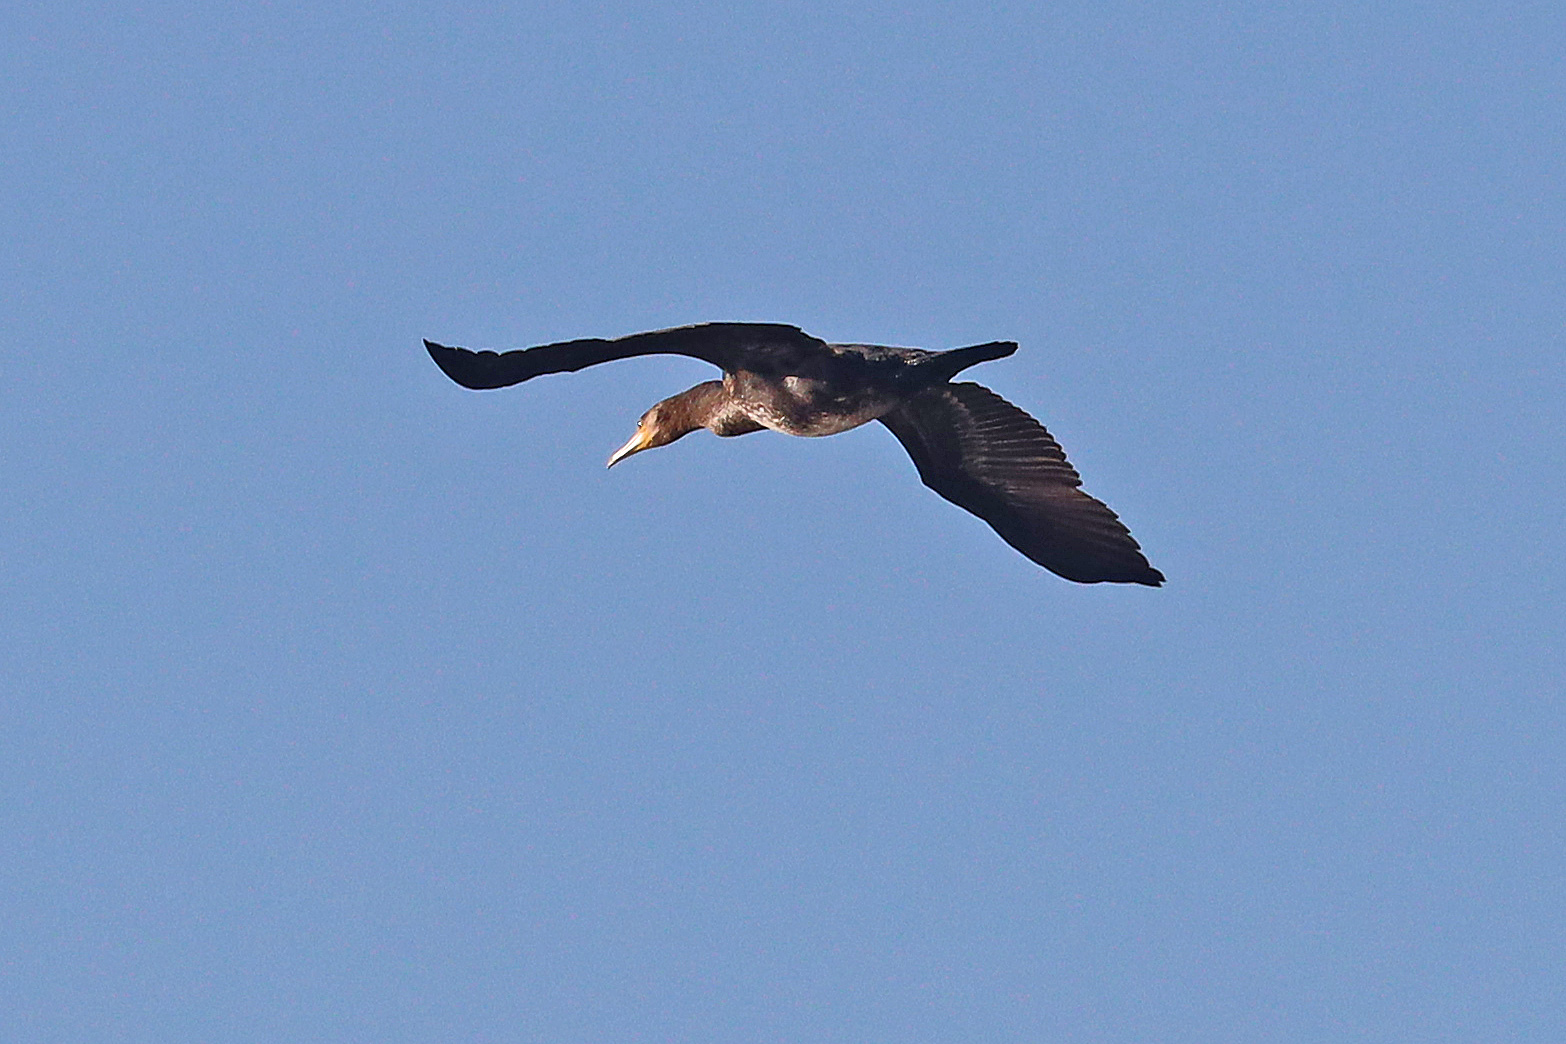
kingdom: Animalia
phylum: Chordata
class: Aves
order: Suliformes
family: Phalacrocoracidae
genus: Phalacrocorax
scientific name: Phalacrocorax carbo
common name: Great cormorant
